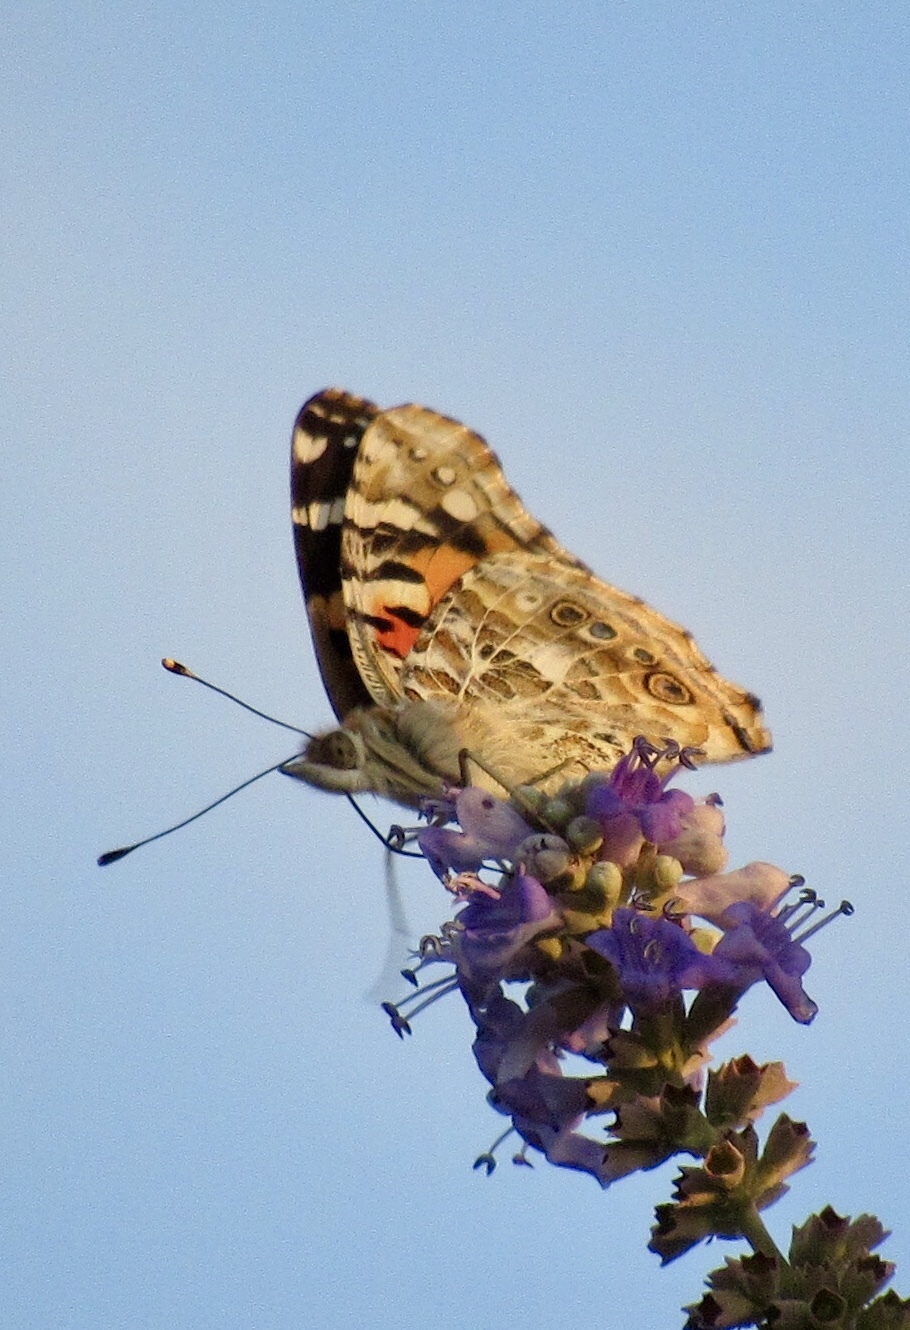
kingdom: Animalia
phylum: Arthropoda
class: Insecta
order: Lepidoptera
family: Nymphalidae
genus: Vanessa
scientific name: Vanessa cardui
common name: Painted lady
